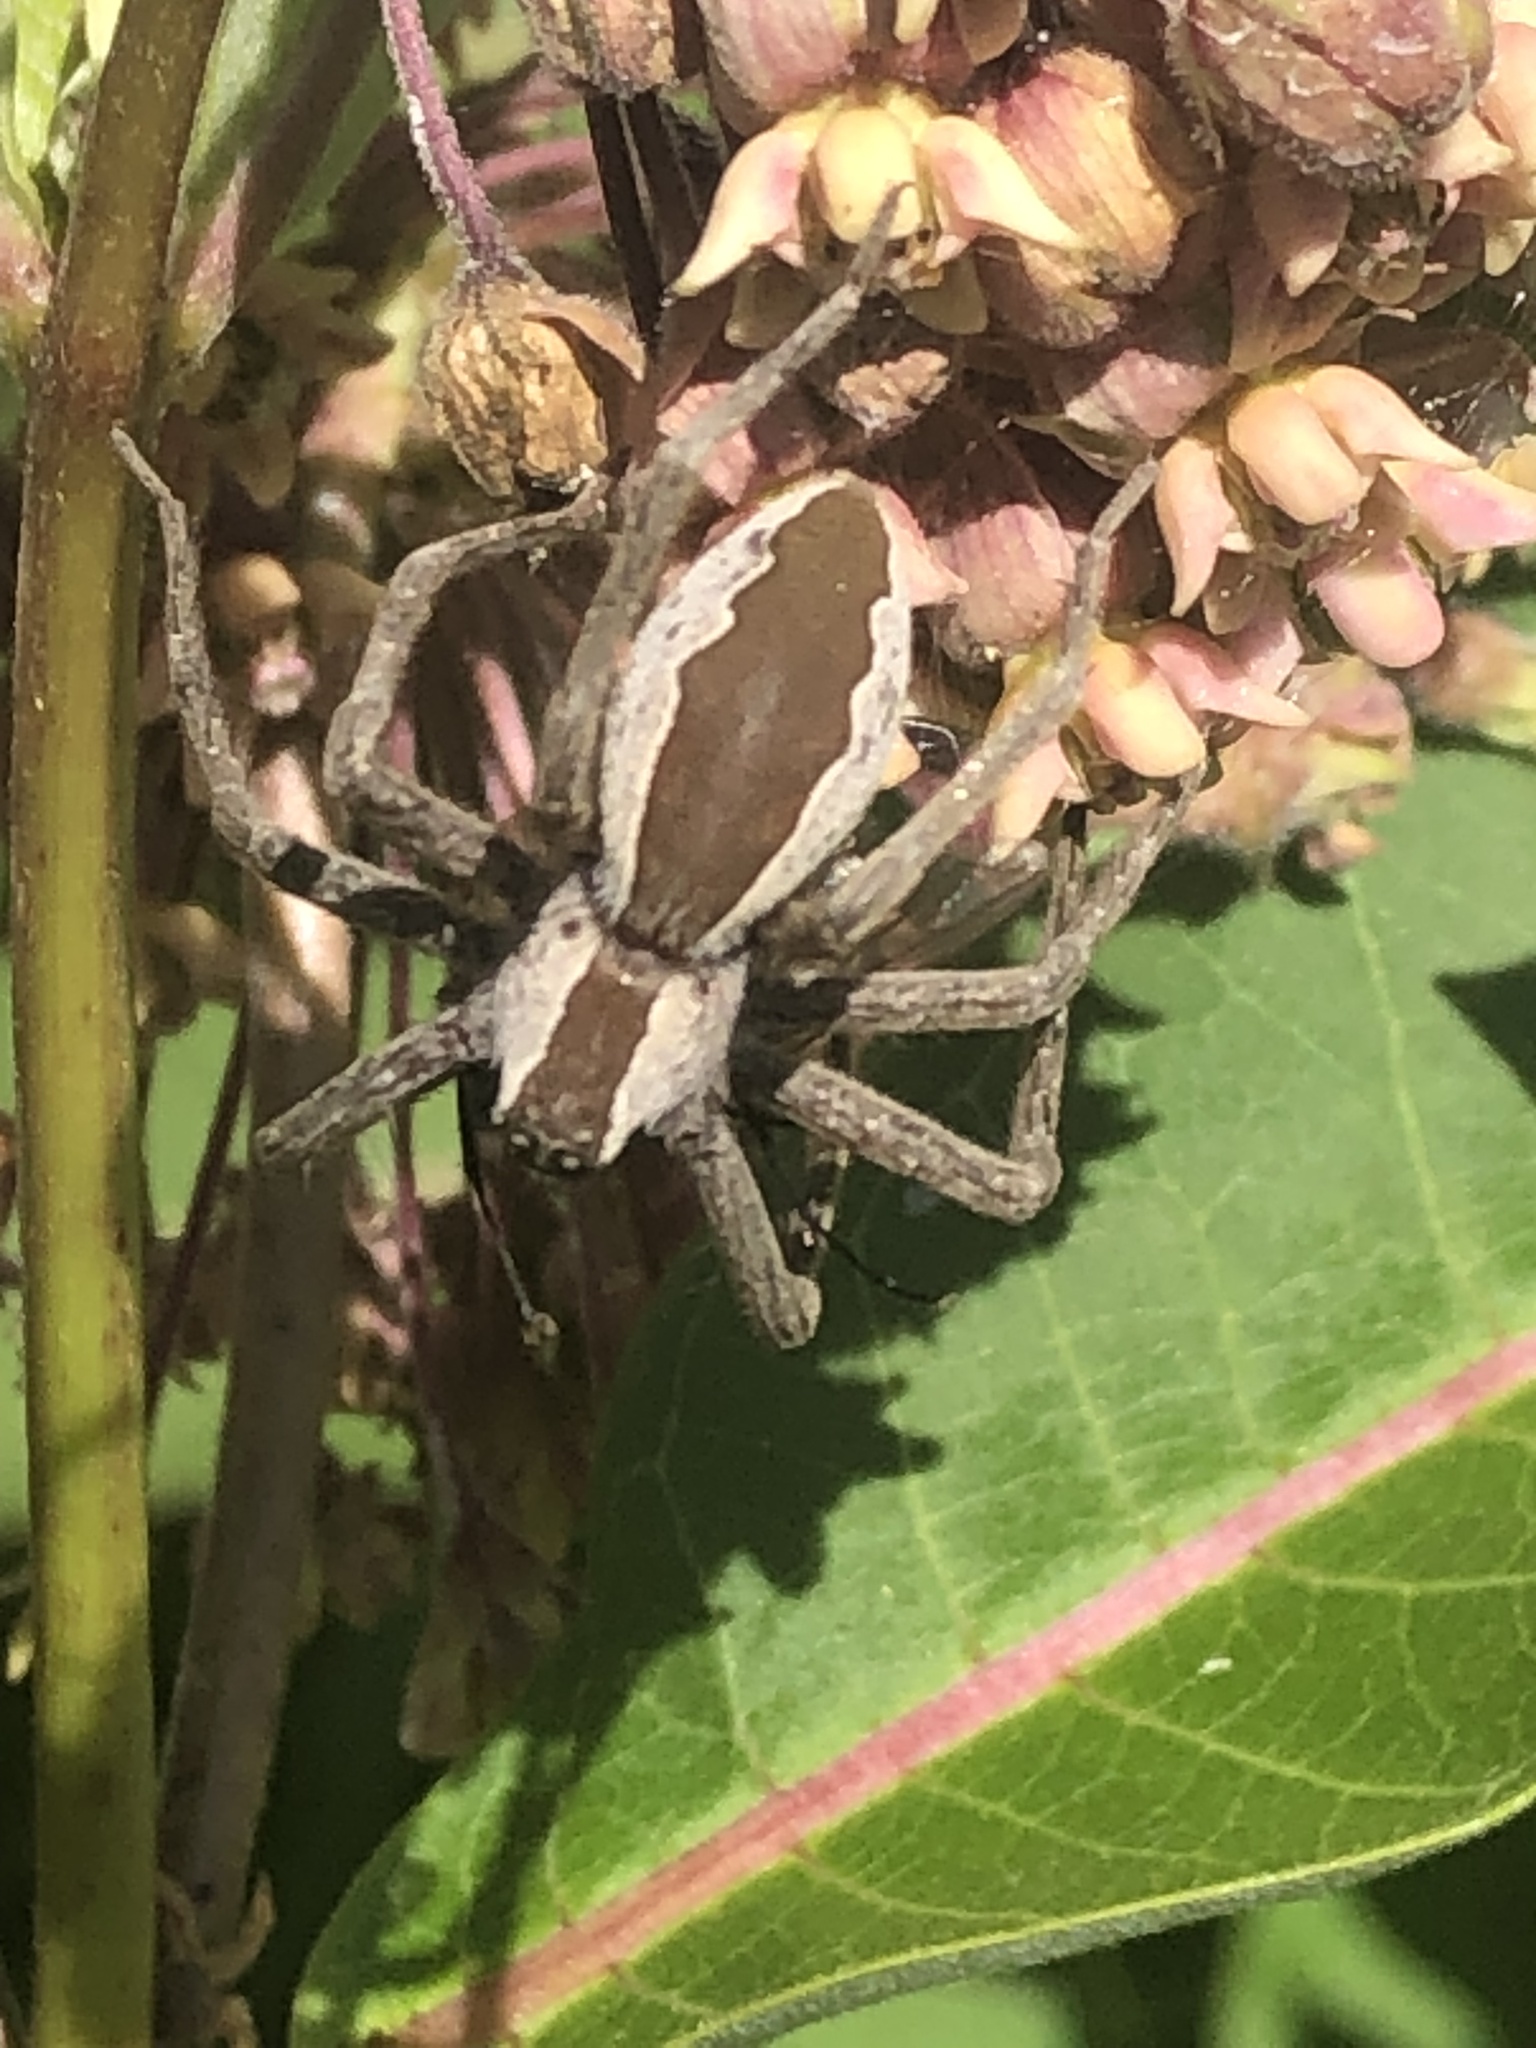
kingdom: Animalia
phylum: Arthropoda
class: Arachnida
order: Araneae
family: Pisauridae
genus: Pisaurina
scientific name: Pisaurina mira
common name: American nursery web spider
